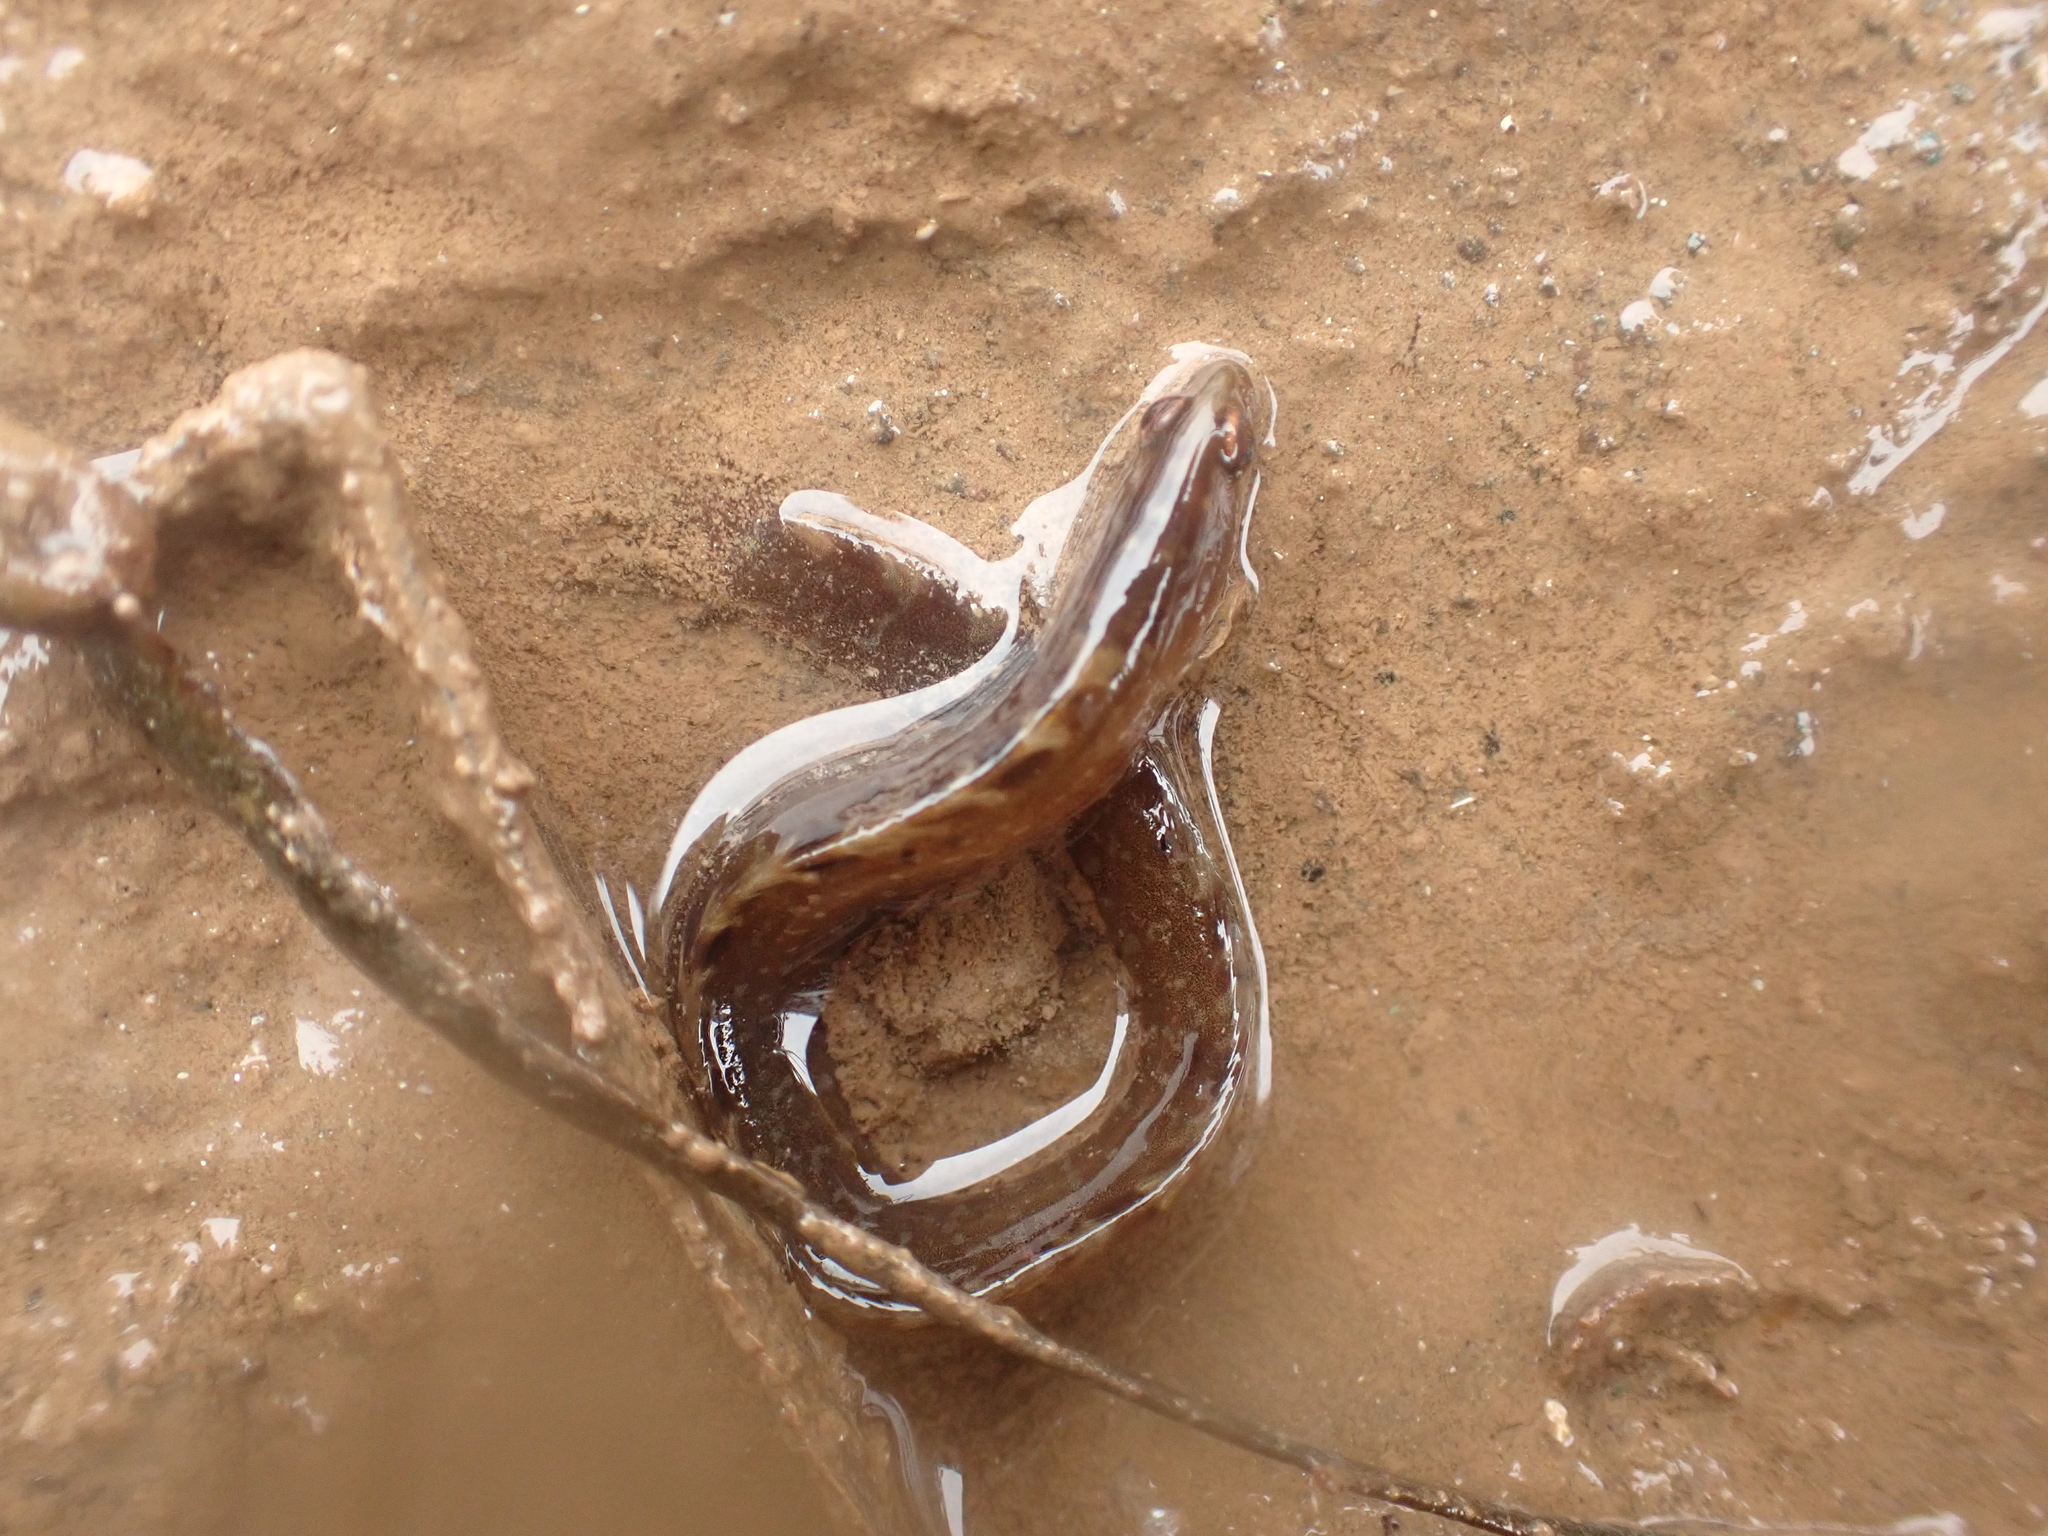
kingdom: Animalia
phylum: Chordata
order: Perciformes
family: Pholidae
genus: Pholis
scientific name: Pholis gunnellus
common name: Butterfish
